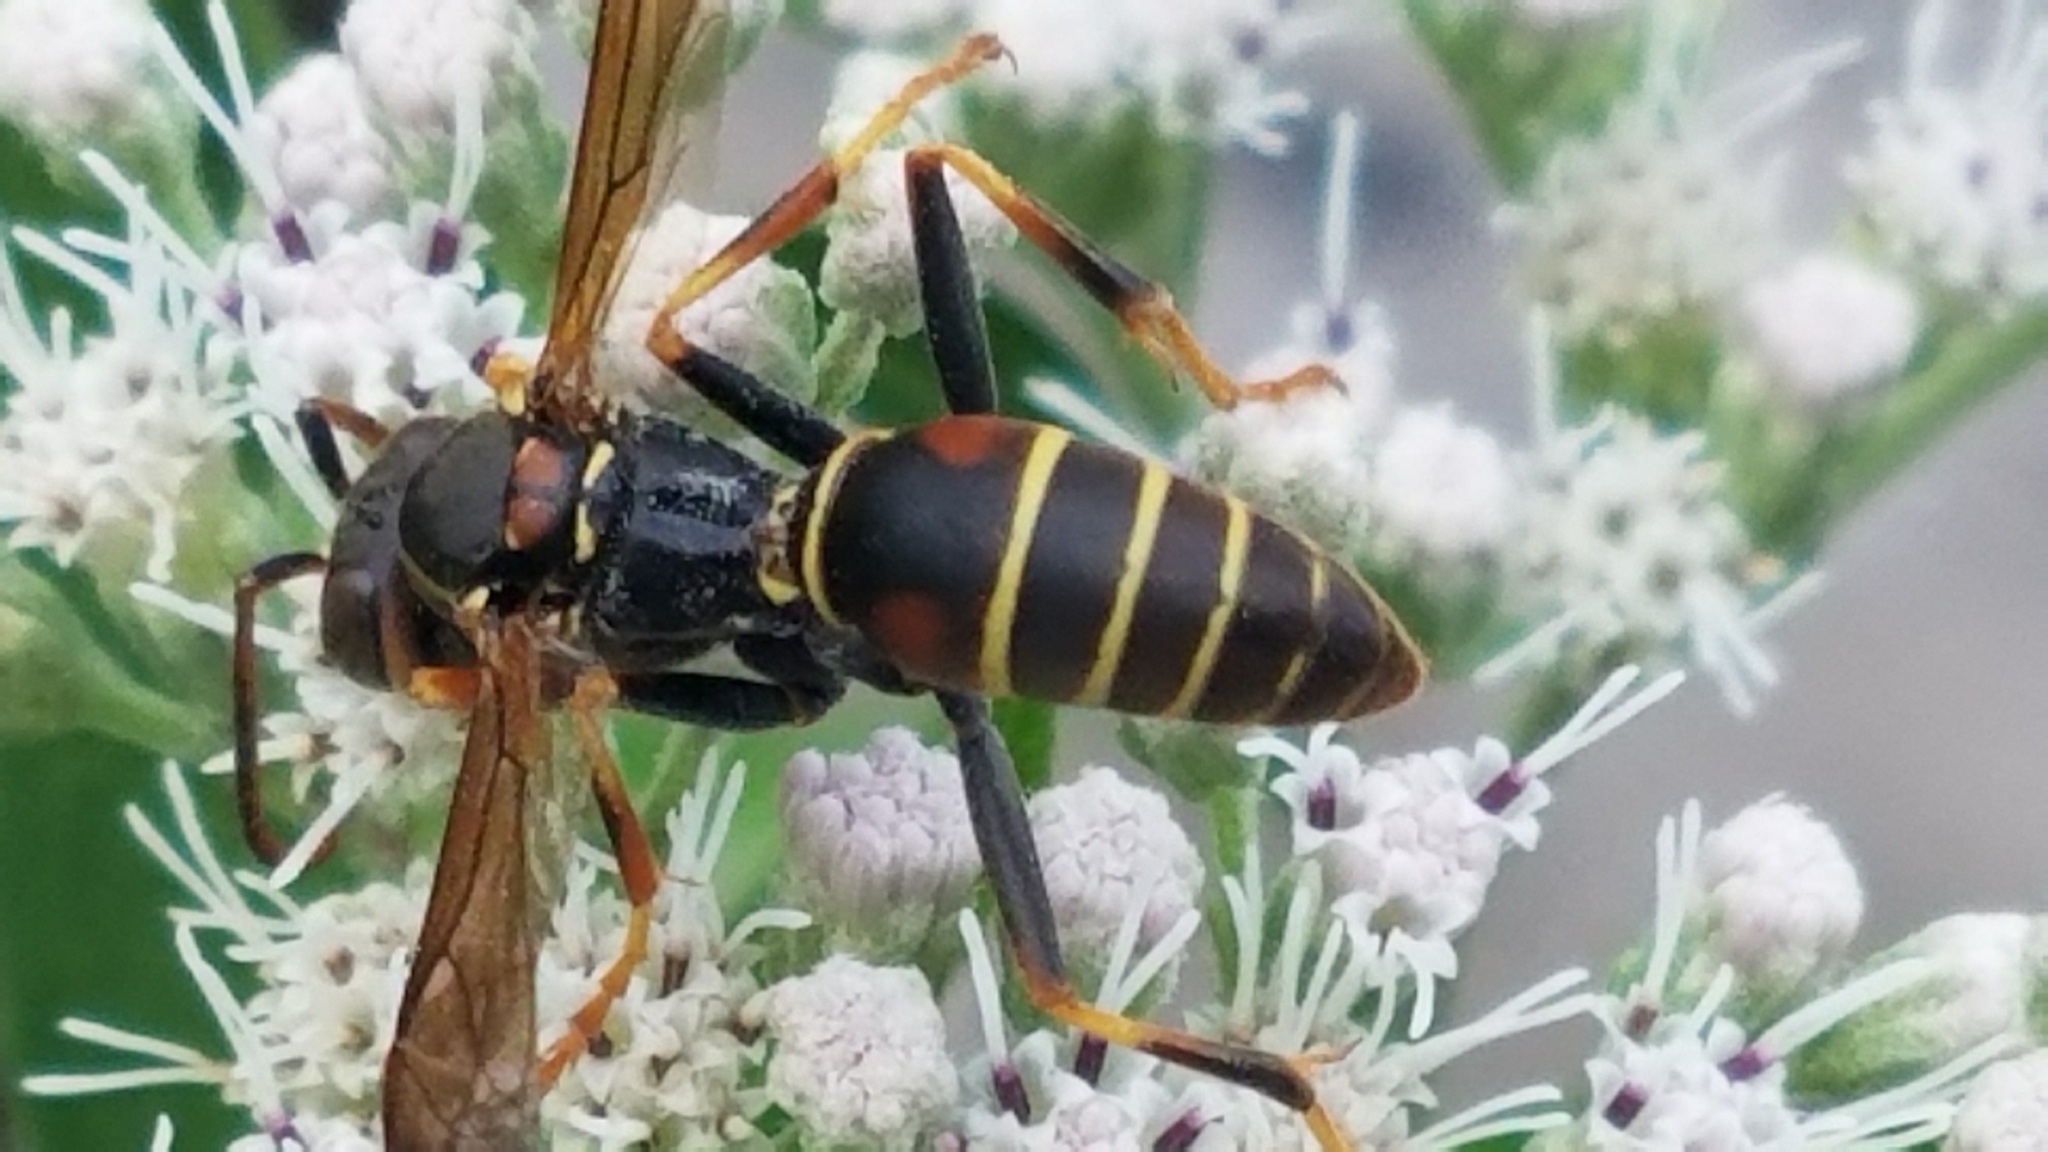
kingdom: Animalia
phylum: Arthropoda
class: Insecta
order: Hymenoptera
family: Eumenidae
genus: Polistes
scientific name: Polistes fuscatus
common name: Dark paper wasp
